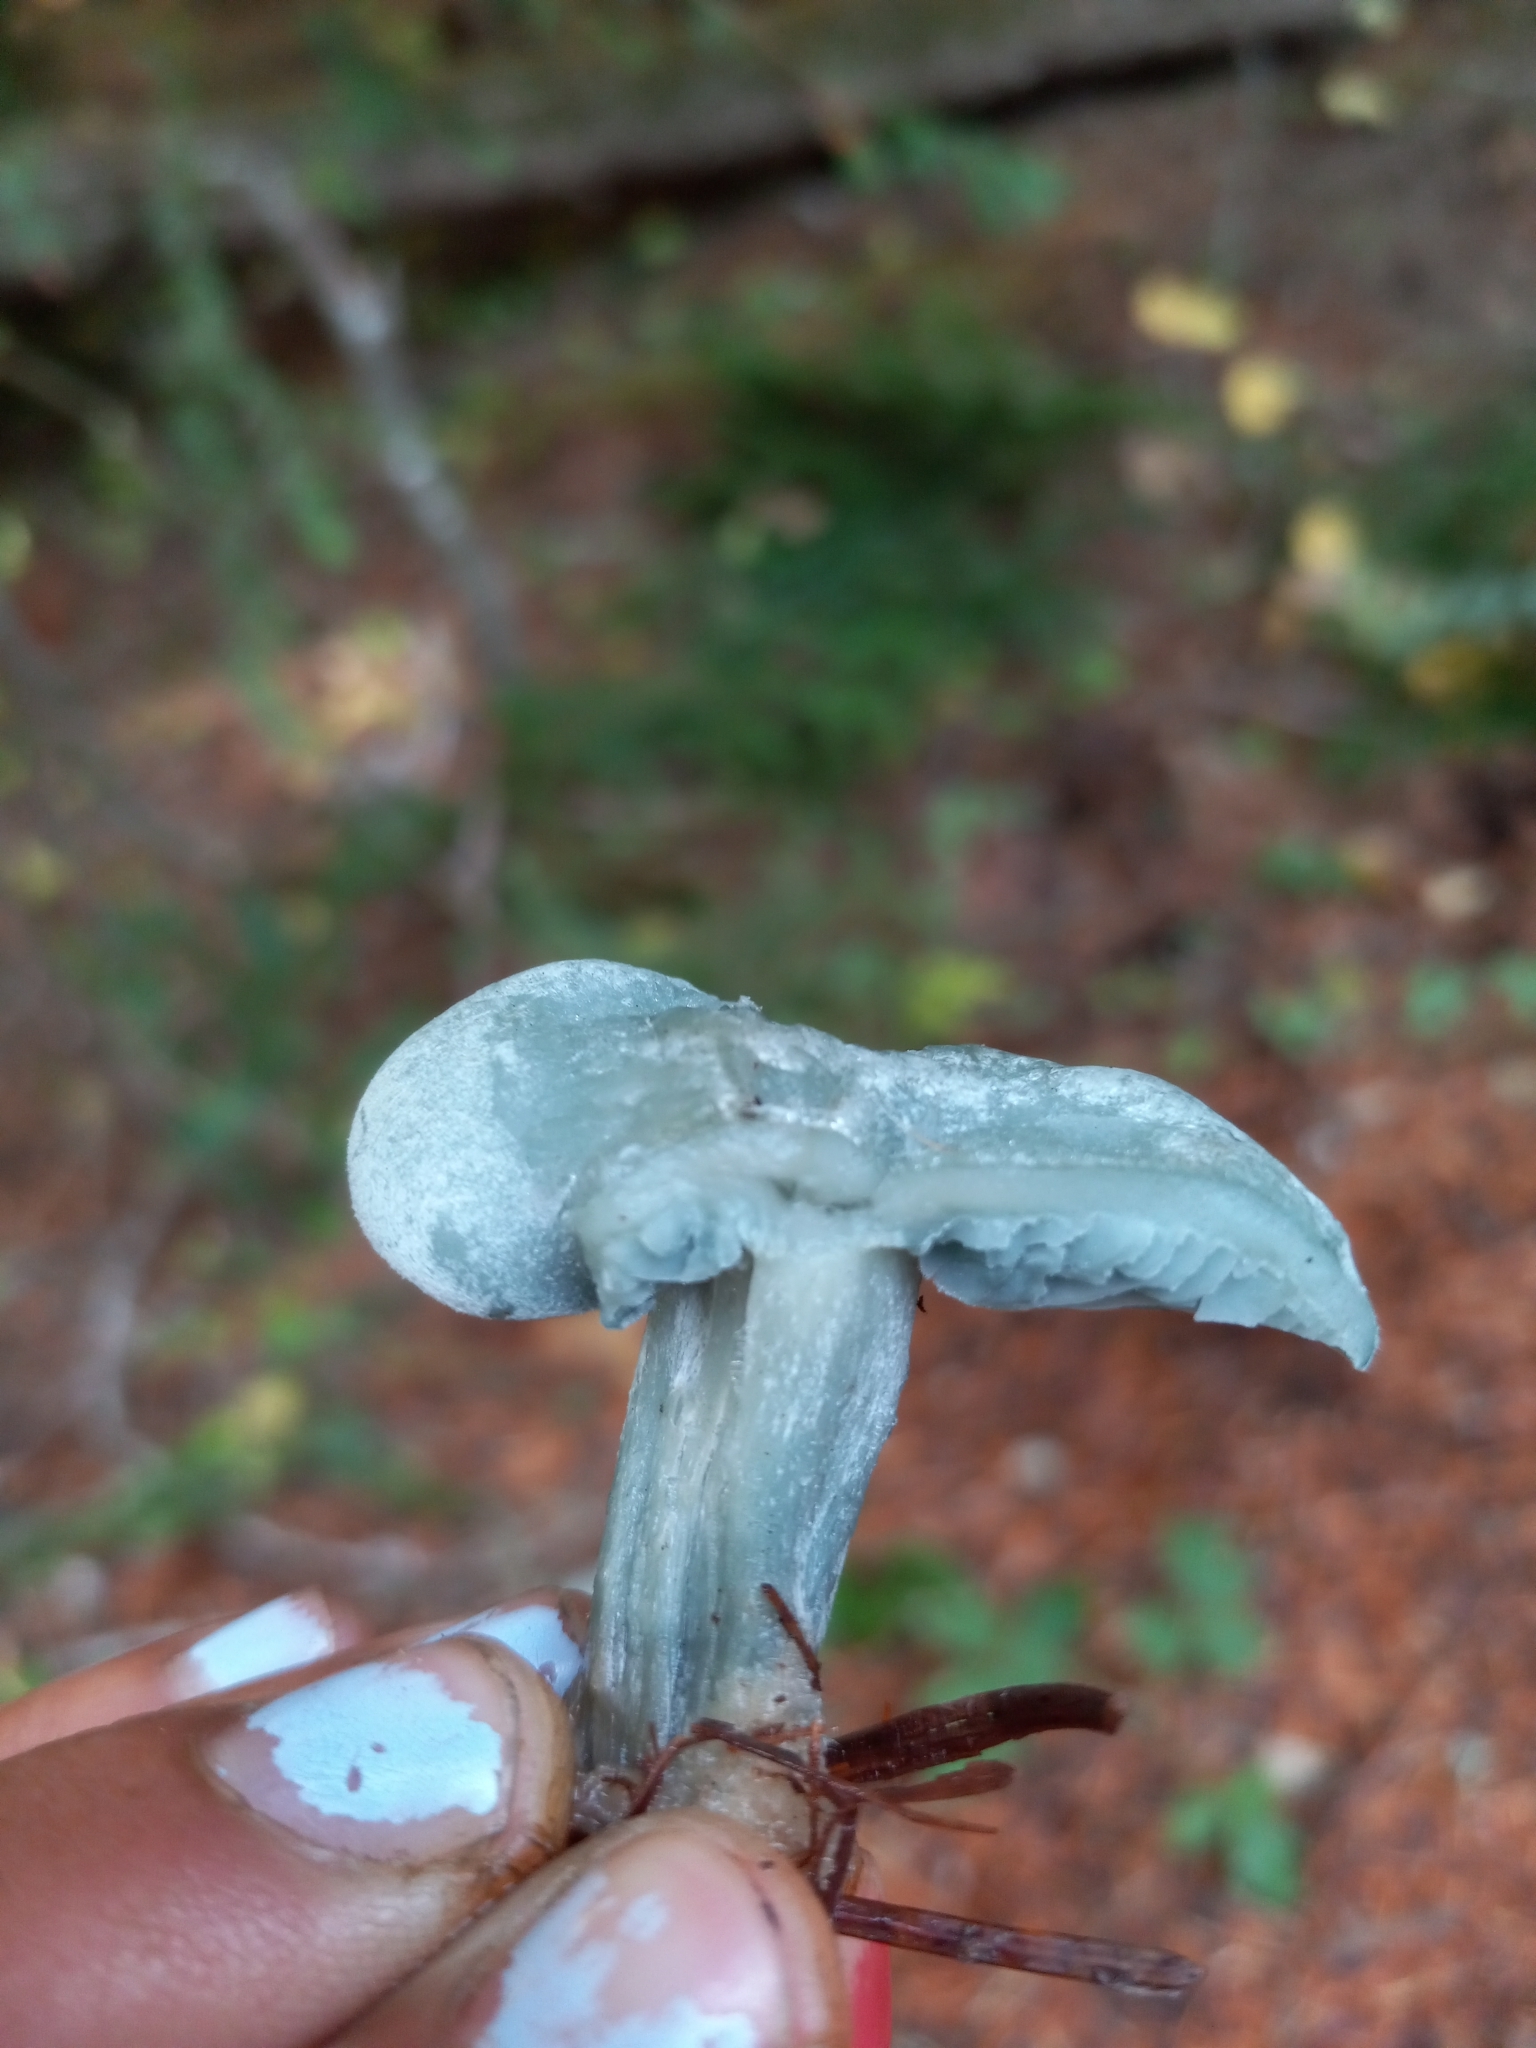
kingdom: Fungi
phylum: Basidiomycota
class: Agaricomycetes
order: Agaricales
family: Tricholomataceae
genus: Collybia
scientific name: Collybia
